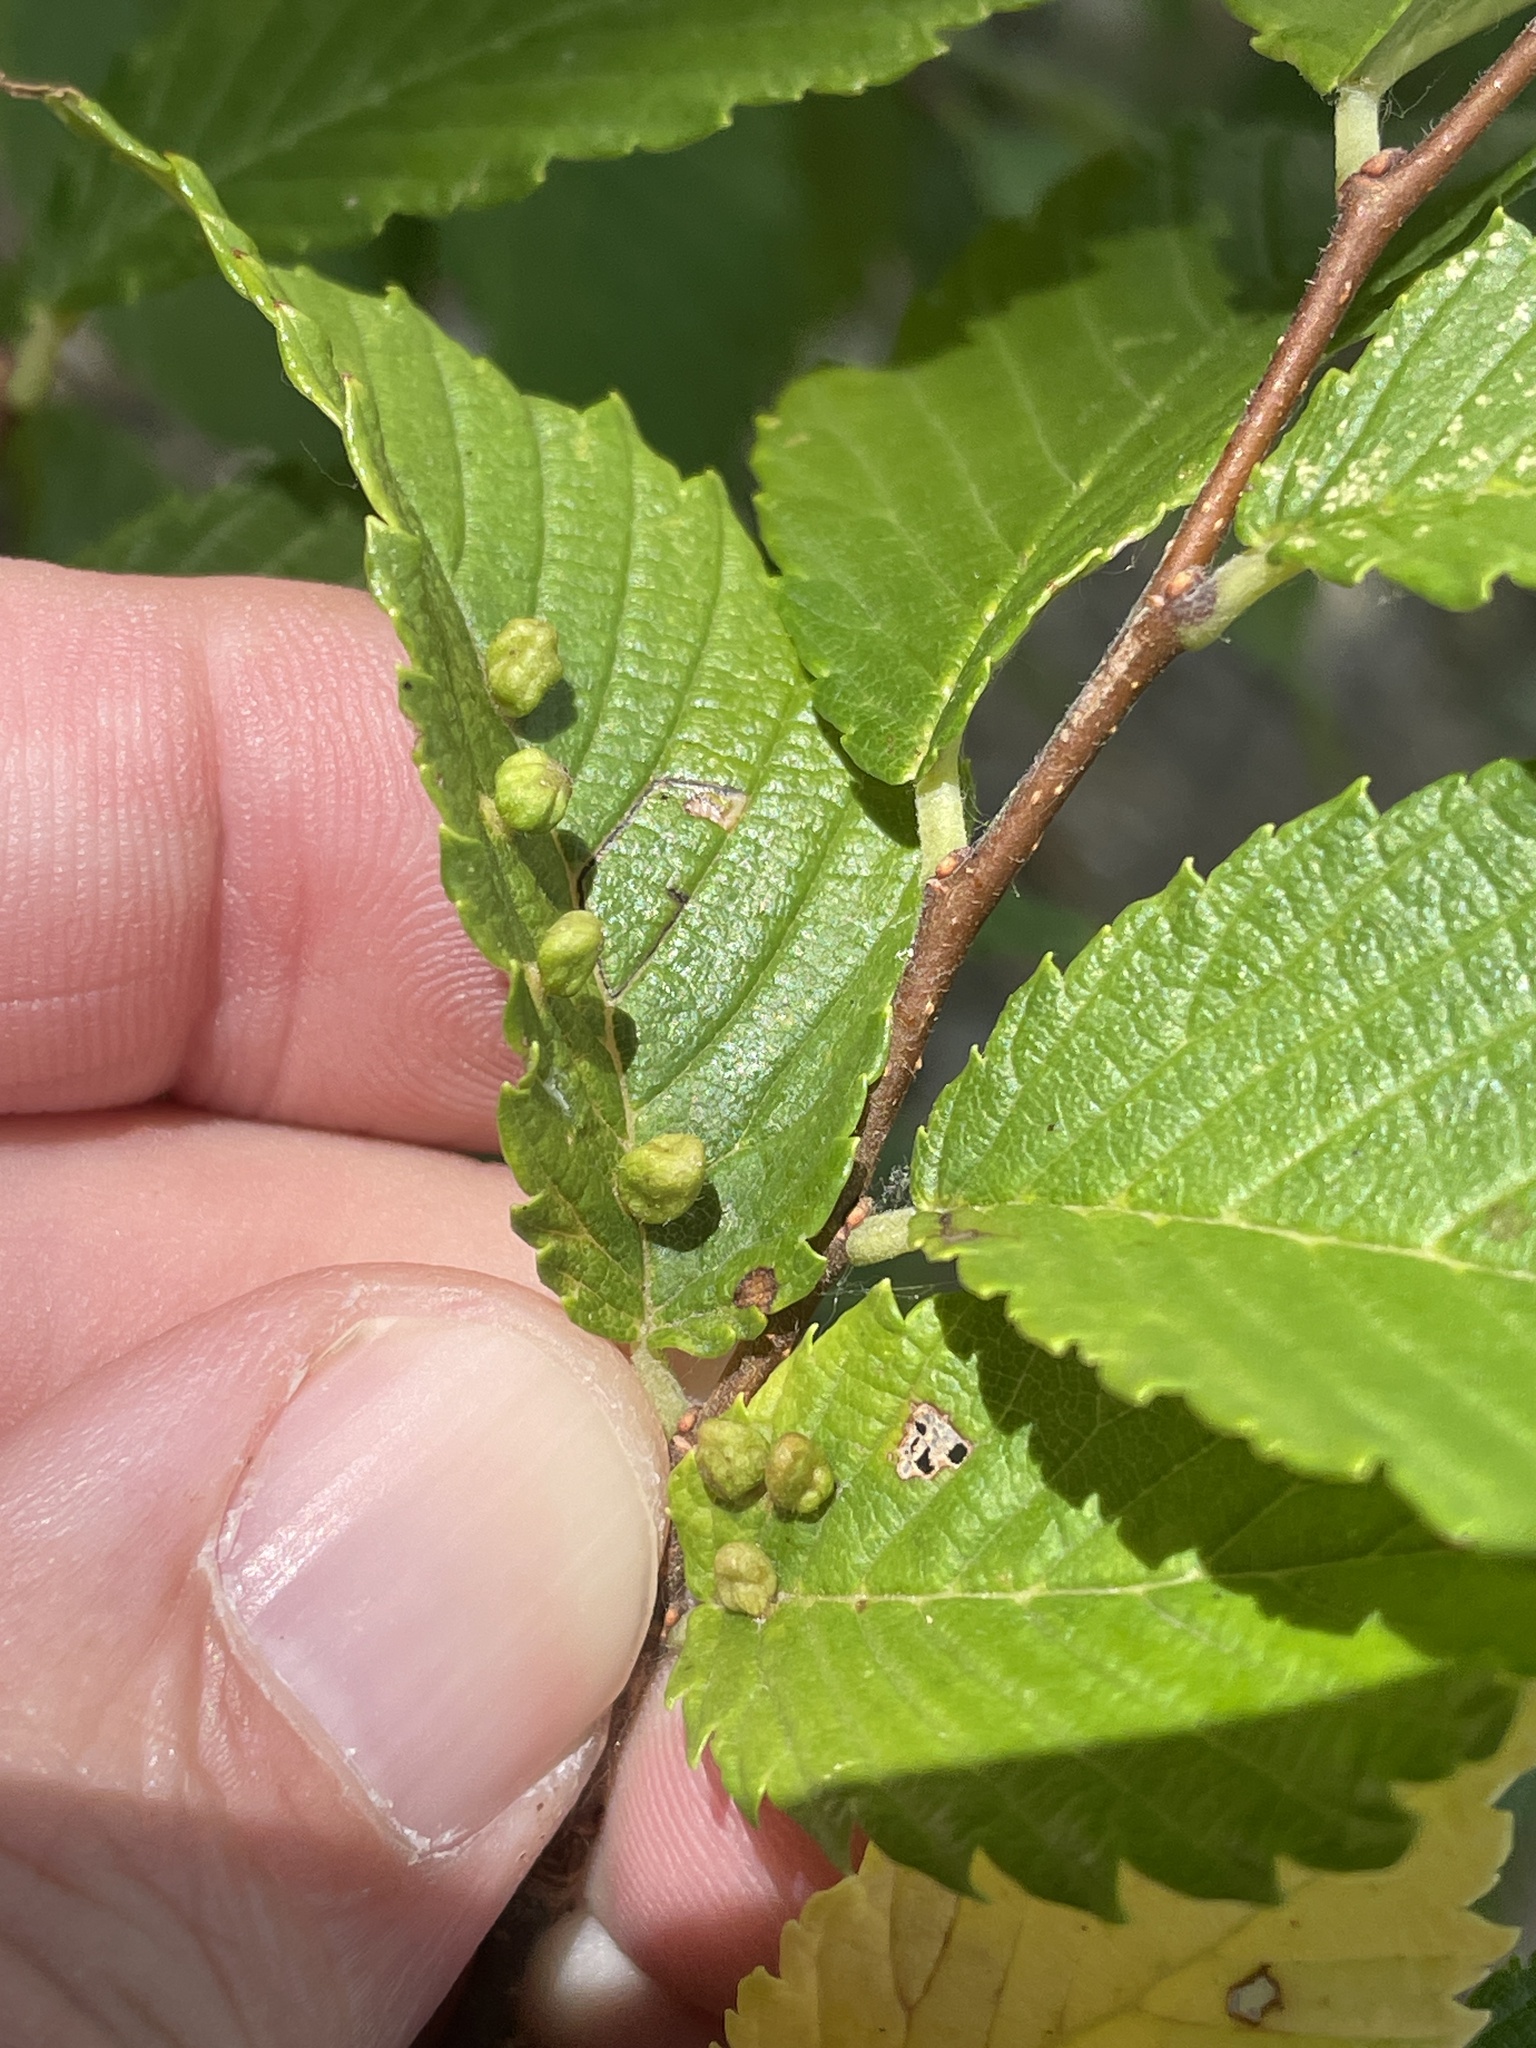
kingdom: Animalia
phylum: Arthropoda
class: Arachnida
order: Trombidiformes
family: Eriophyidae
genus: Aceria
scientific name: Aceria
